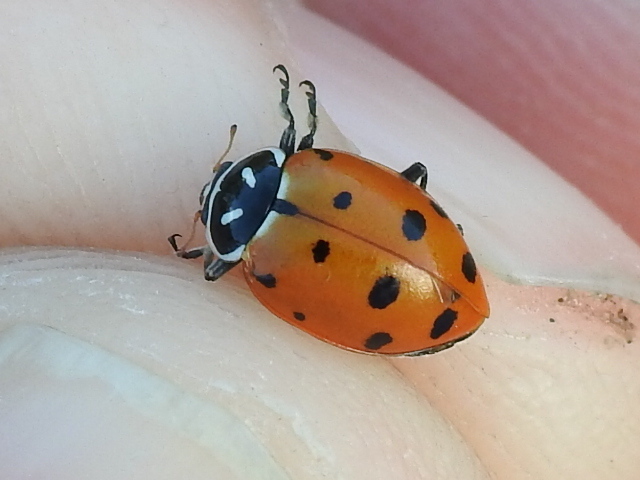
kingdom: Animalia
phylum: Arthropoda
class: Insecta
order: Coleoptera
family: Coccinellidae
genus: Hippodamia
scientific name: Hippodamia convergens
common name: Convergent lady beetle
